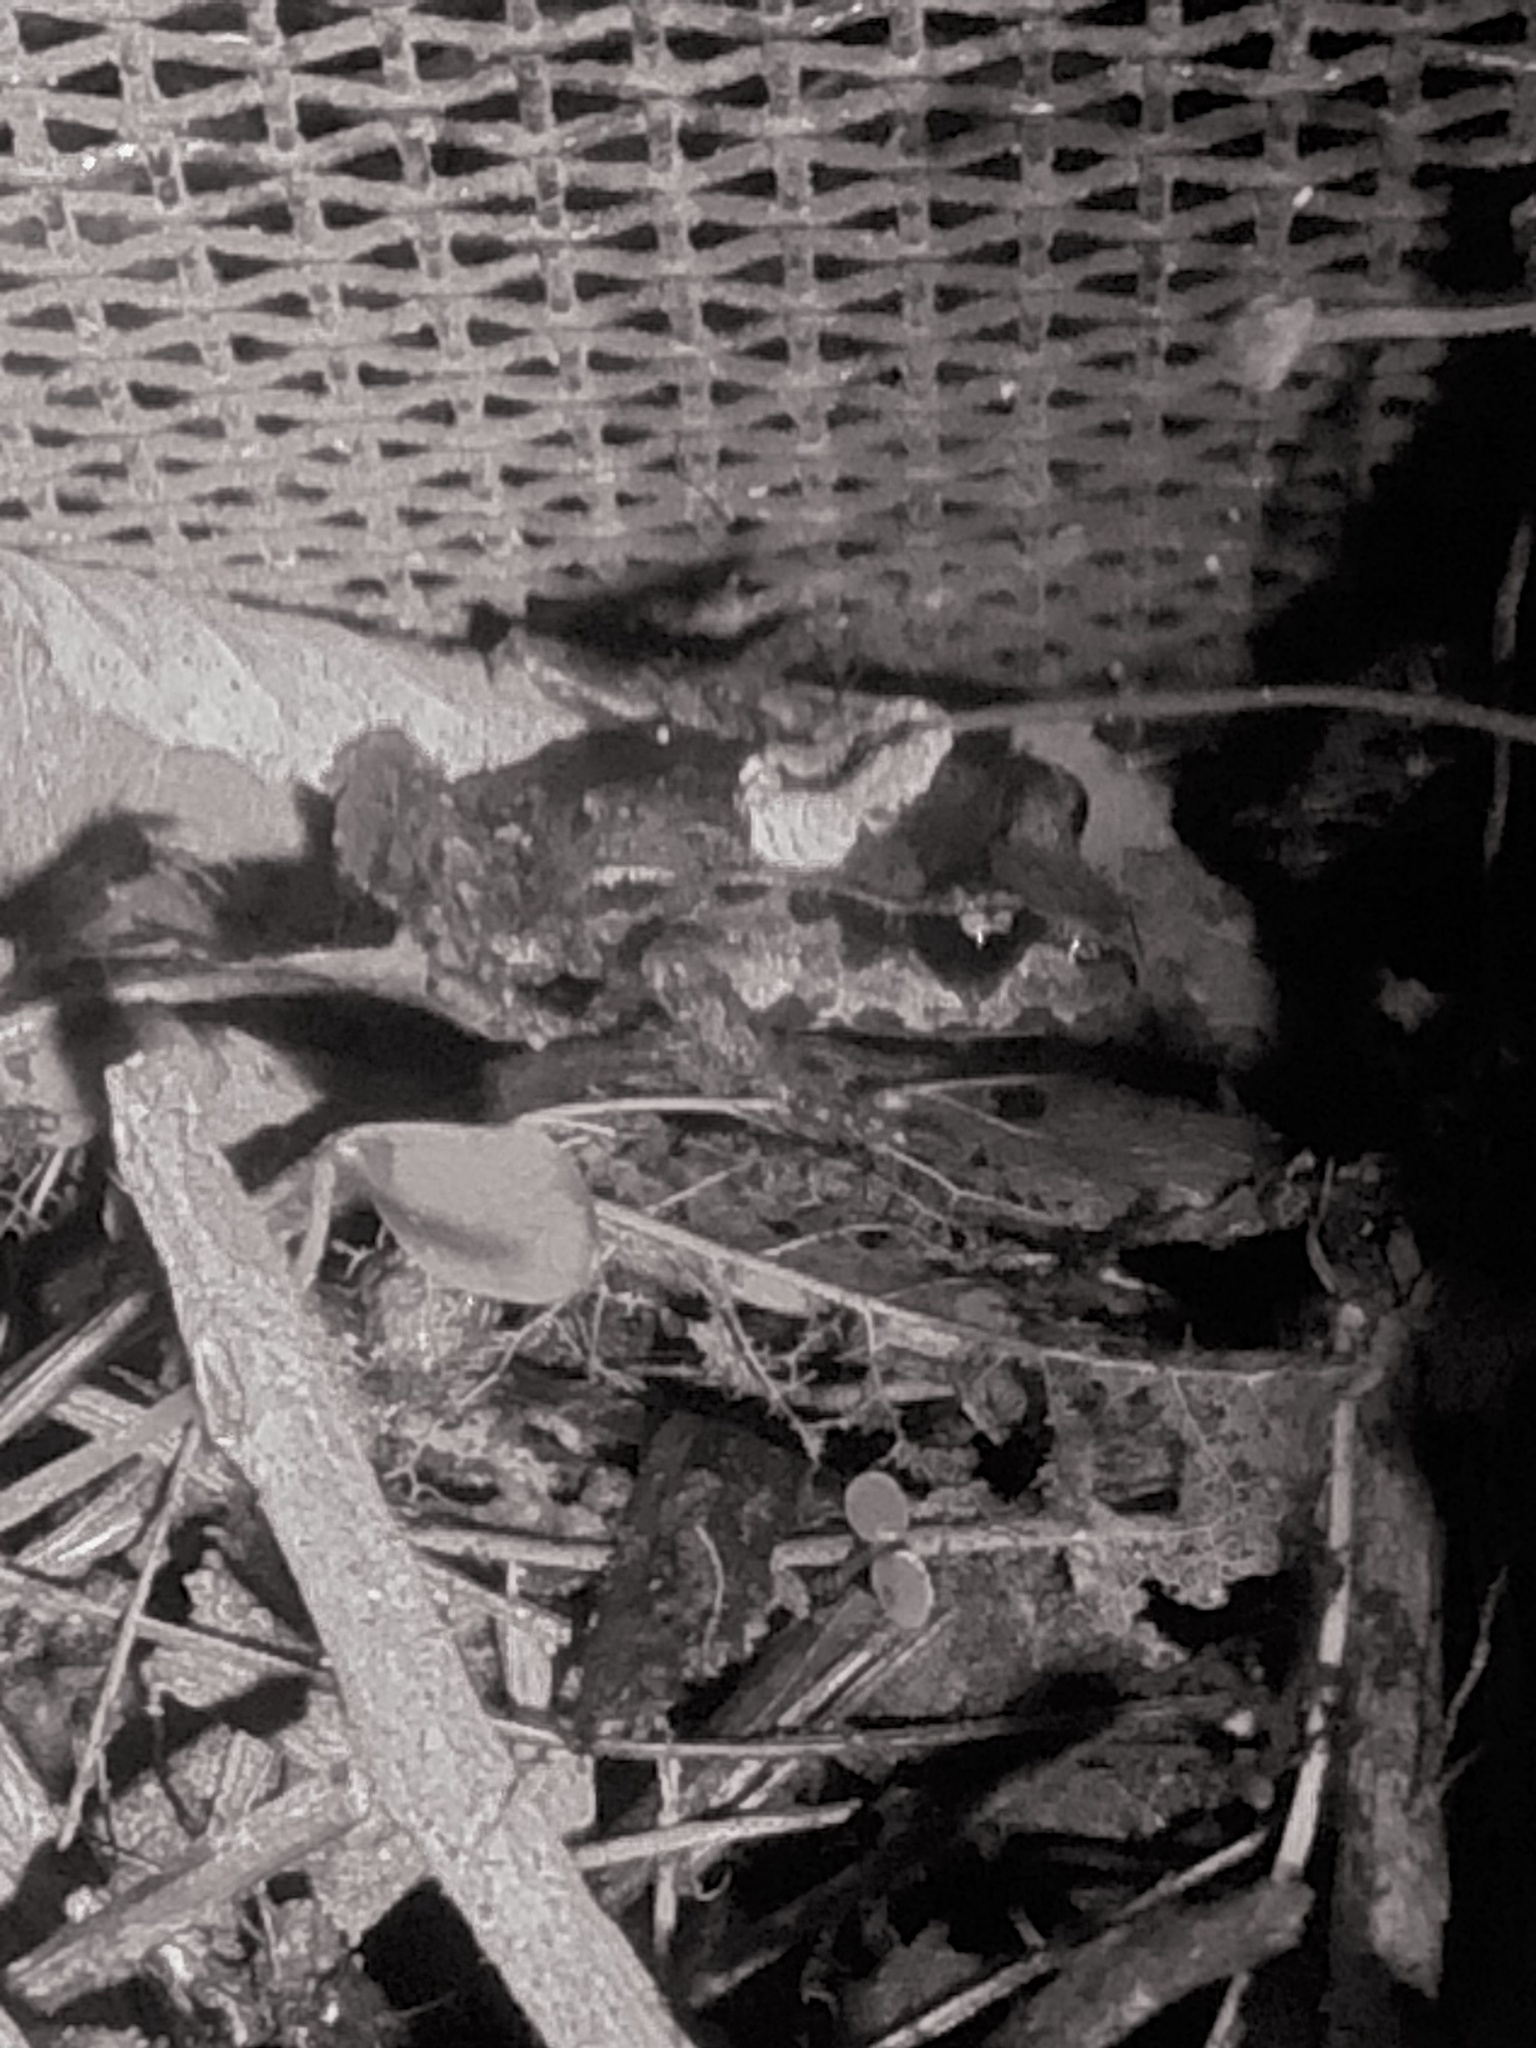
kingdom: Animalia
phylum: Chordata
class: Amphibia
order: Anura
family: Leiopelmatidae
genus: Leiopelma
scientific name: Leiopelma hamiltoni
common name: Hamiltons frog
